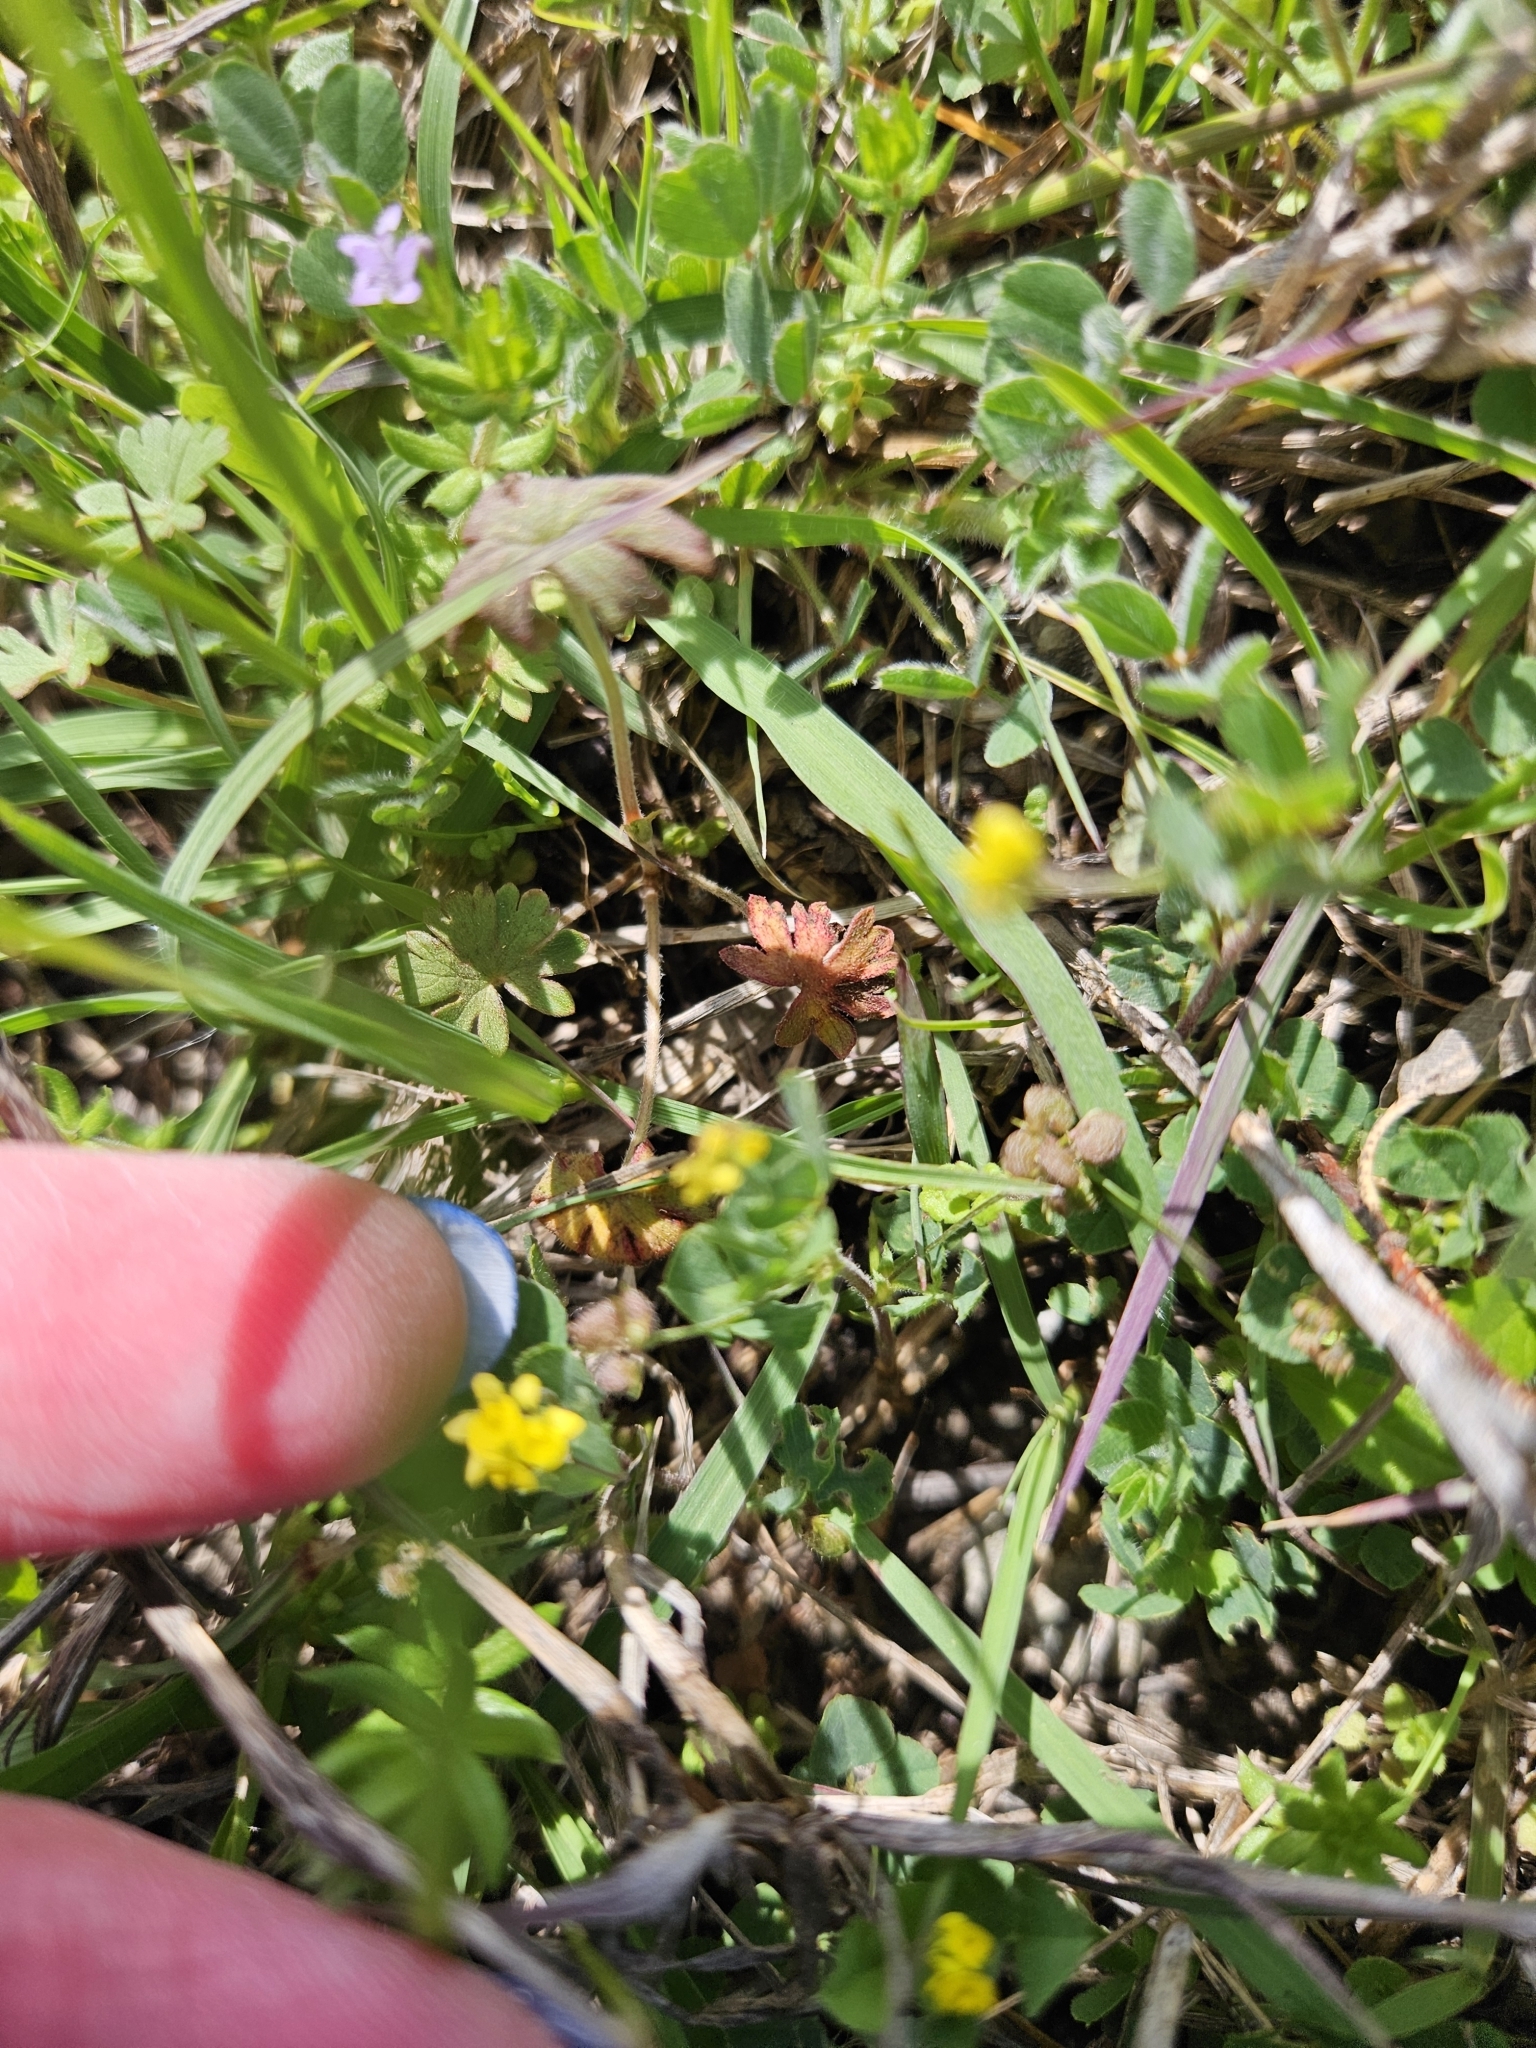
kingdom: Plantae
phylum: Tracheophyta
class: Magnoliopsida
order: Fabales
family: Fabaceae
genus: Medicago
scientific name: Medicago lupulina
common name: Black medick
